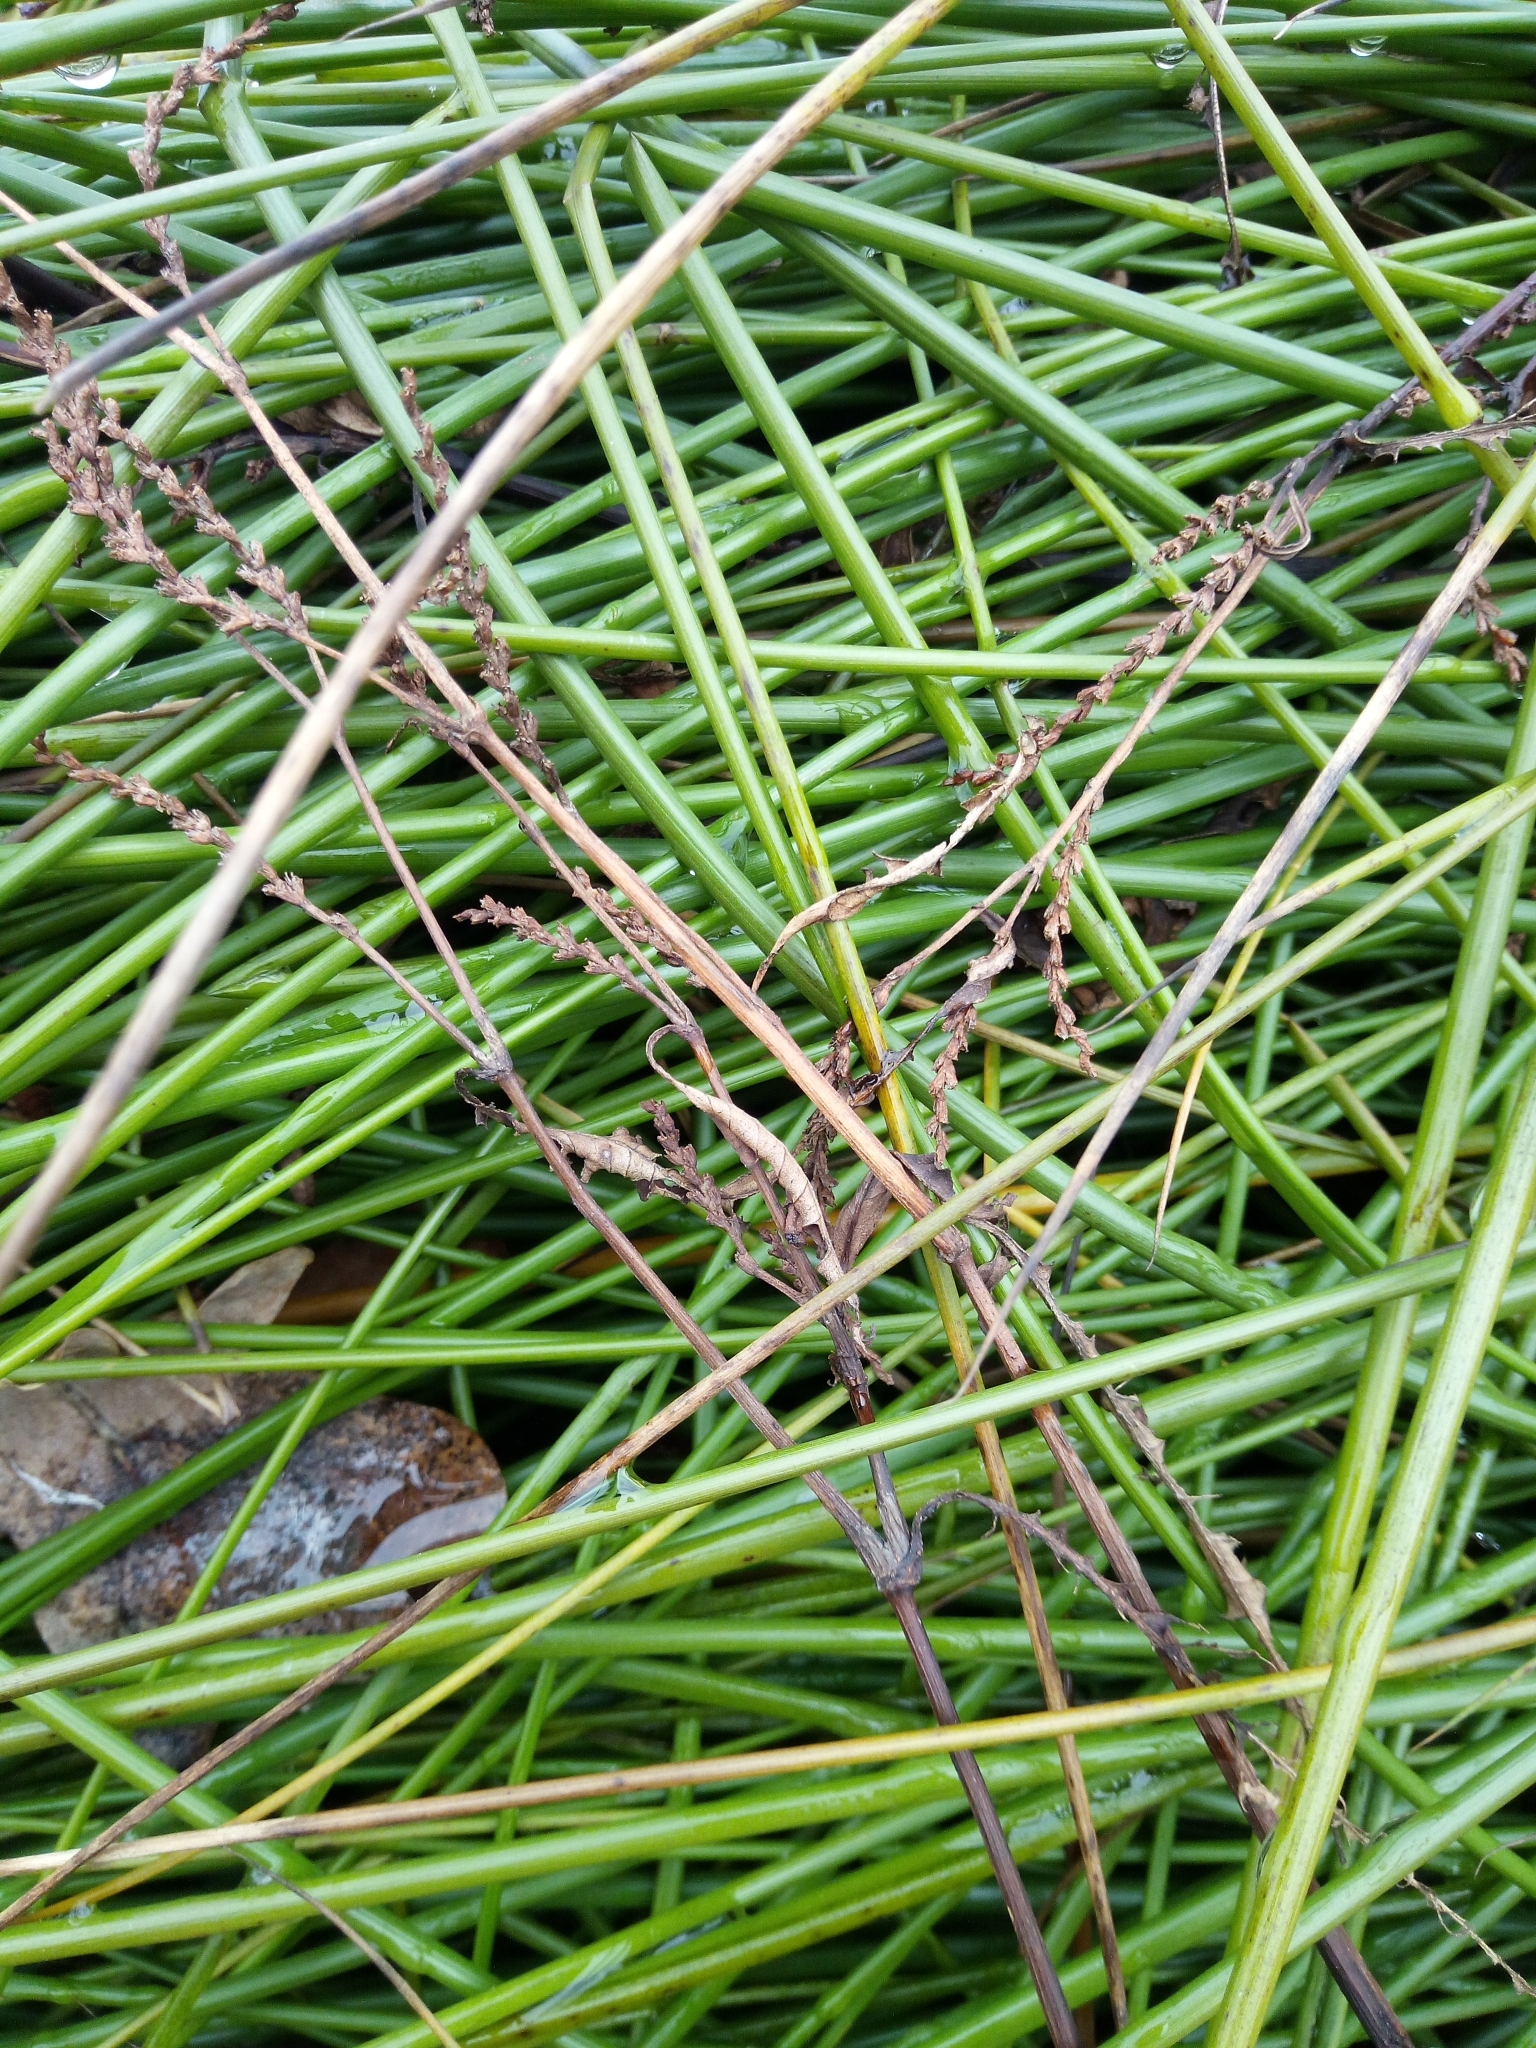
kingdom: Plantae
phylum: Tracheophyta
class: Liliopsida
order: Poales
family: Juncaceae
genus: Juncus
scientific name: Juncus effusus
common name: Soft rush
